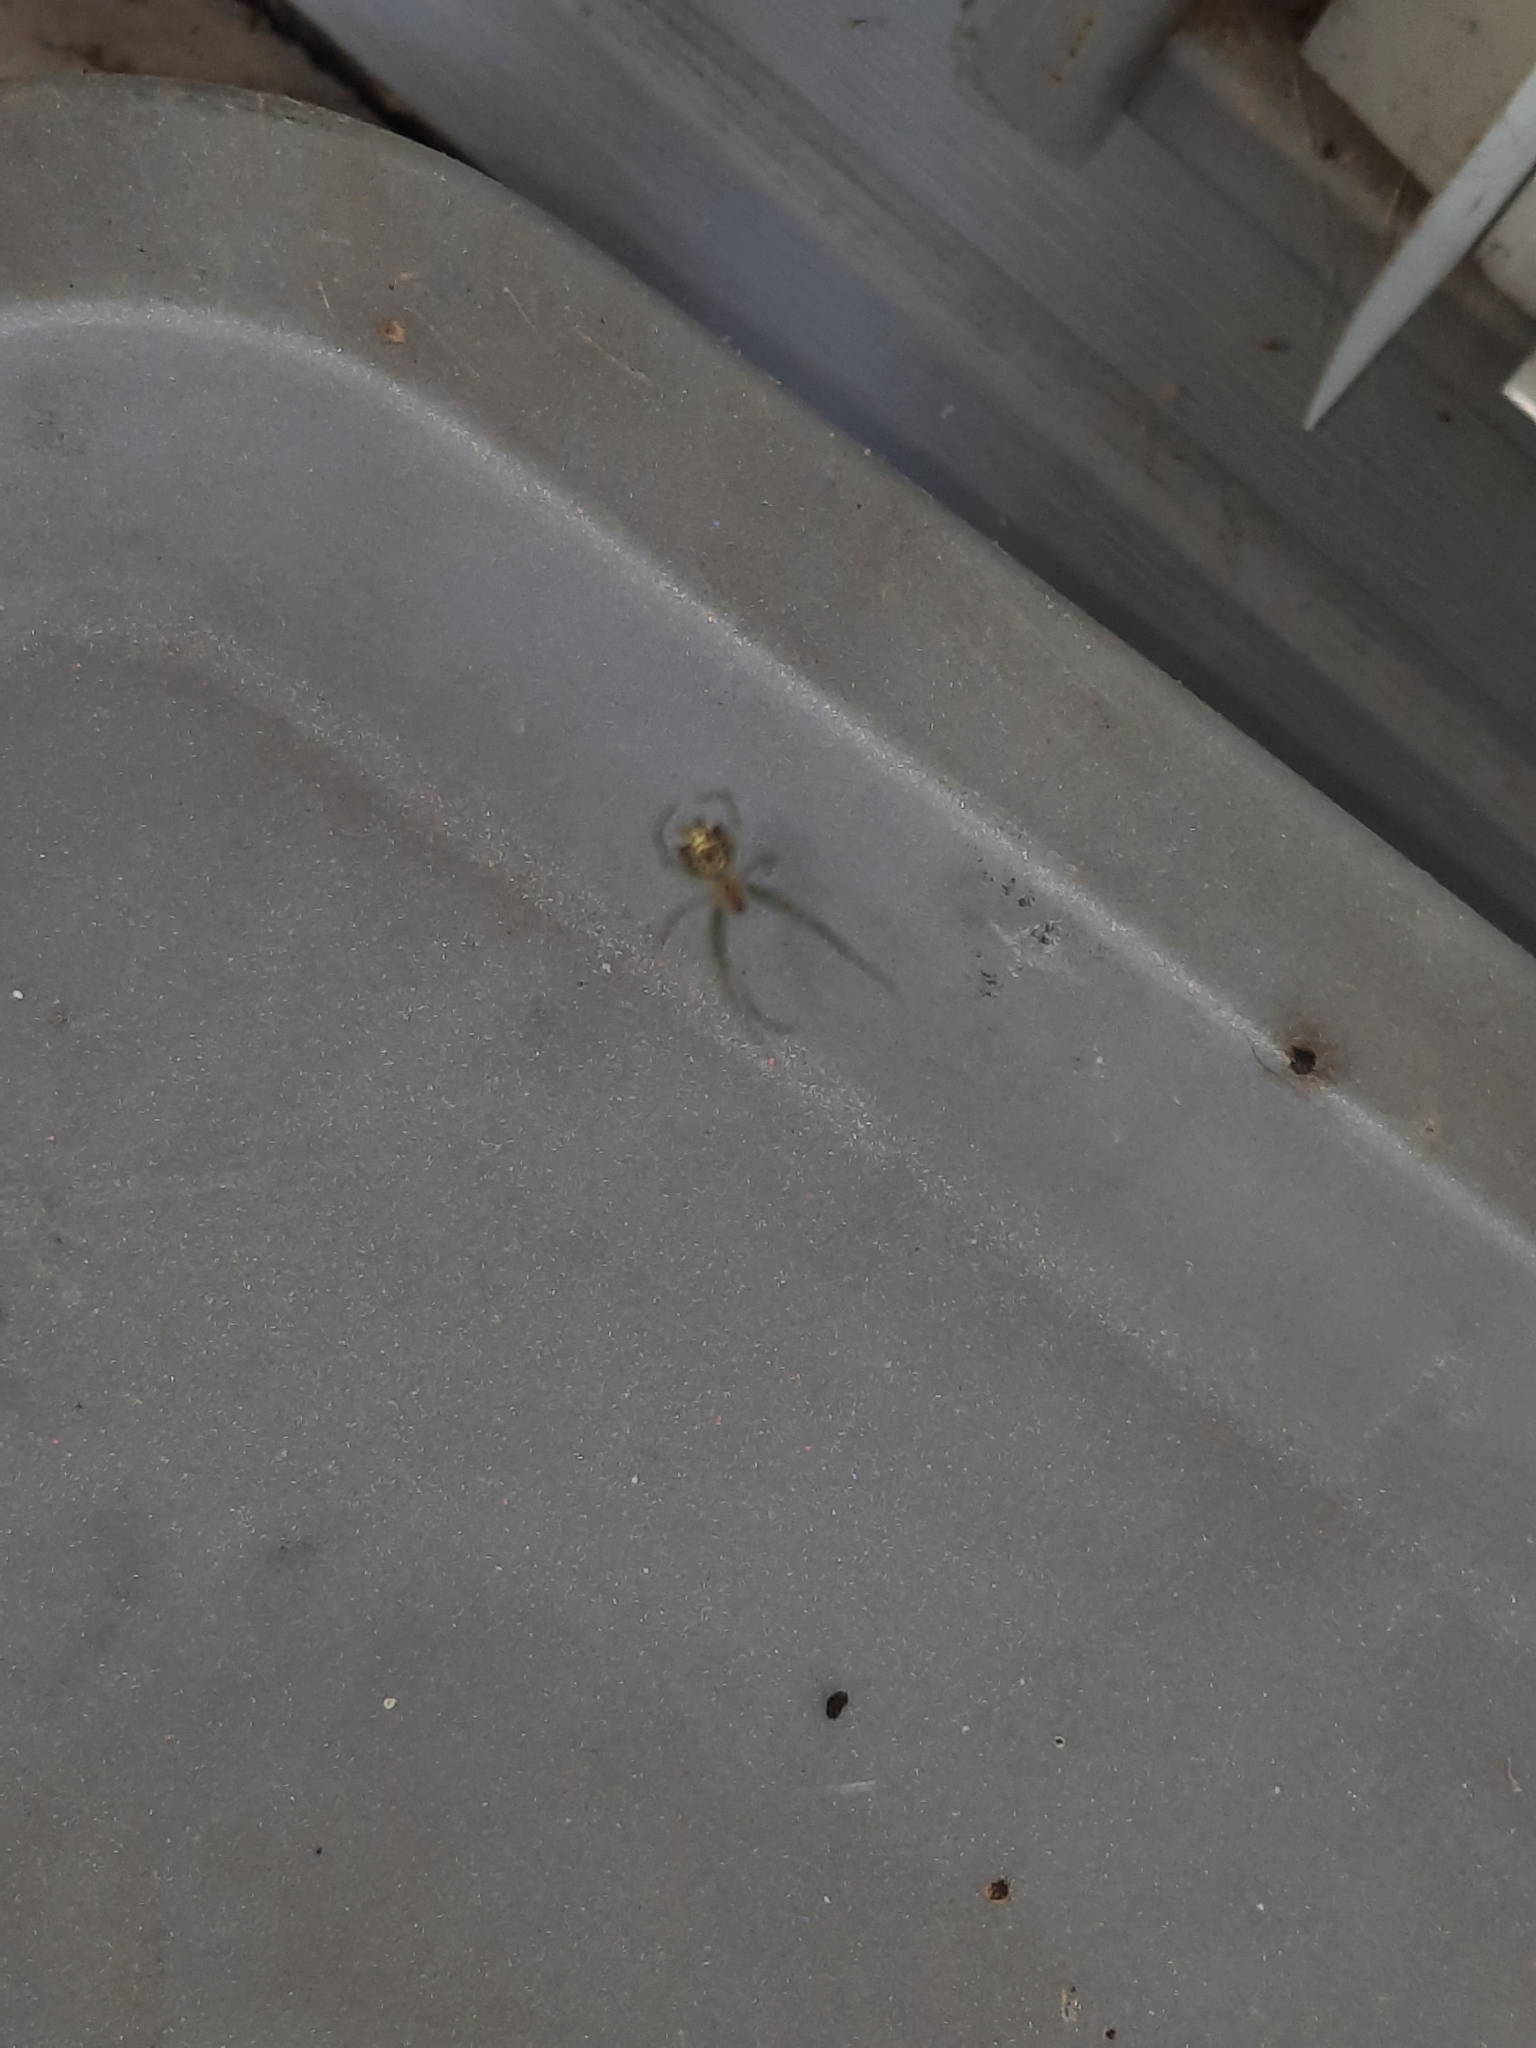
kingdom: Animalia
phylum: Arthropoda
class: Arachnida
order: Araneae
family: Tetragnathidae
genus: Leucauge
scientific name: Leucauge venusta
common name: Longjawed orb weavers
